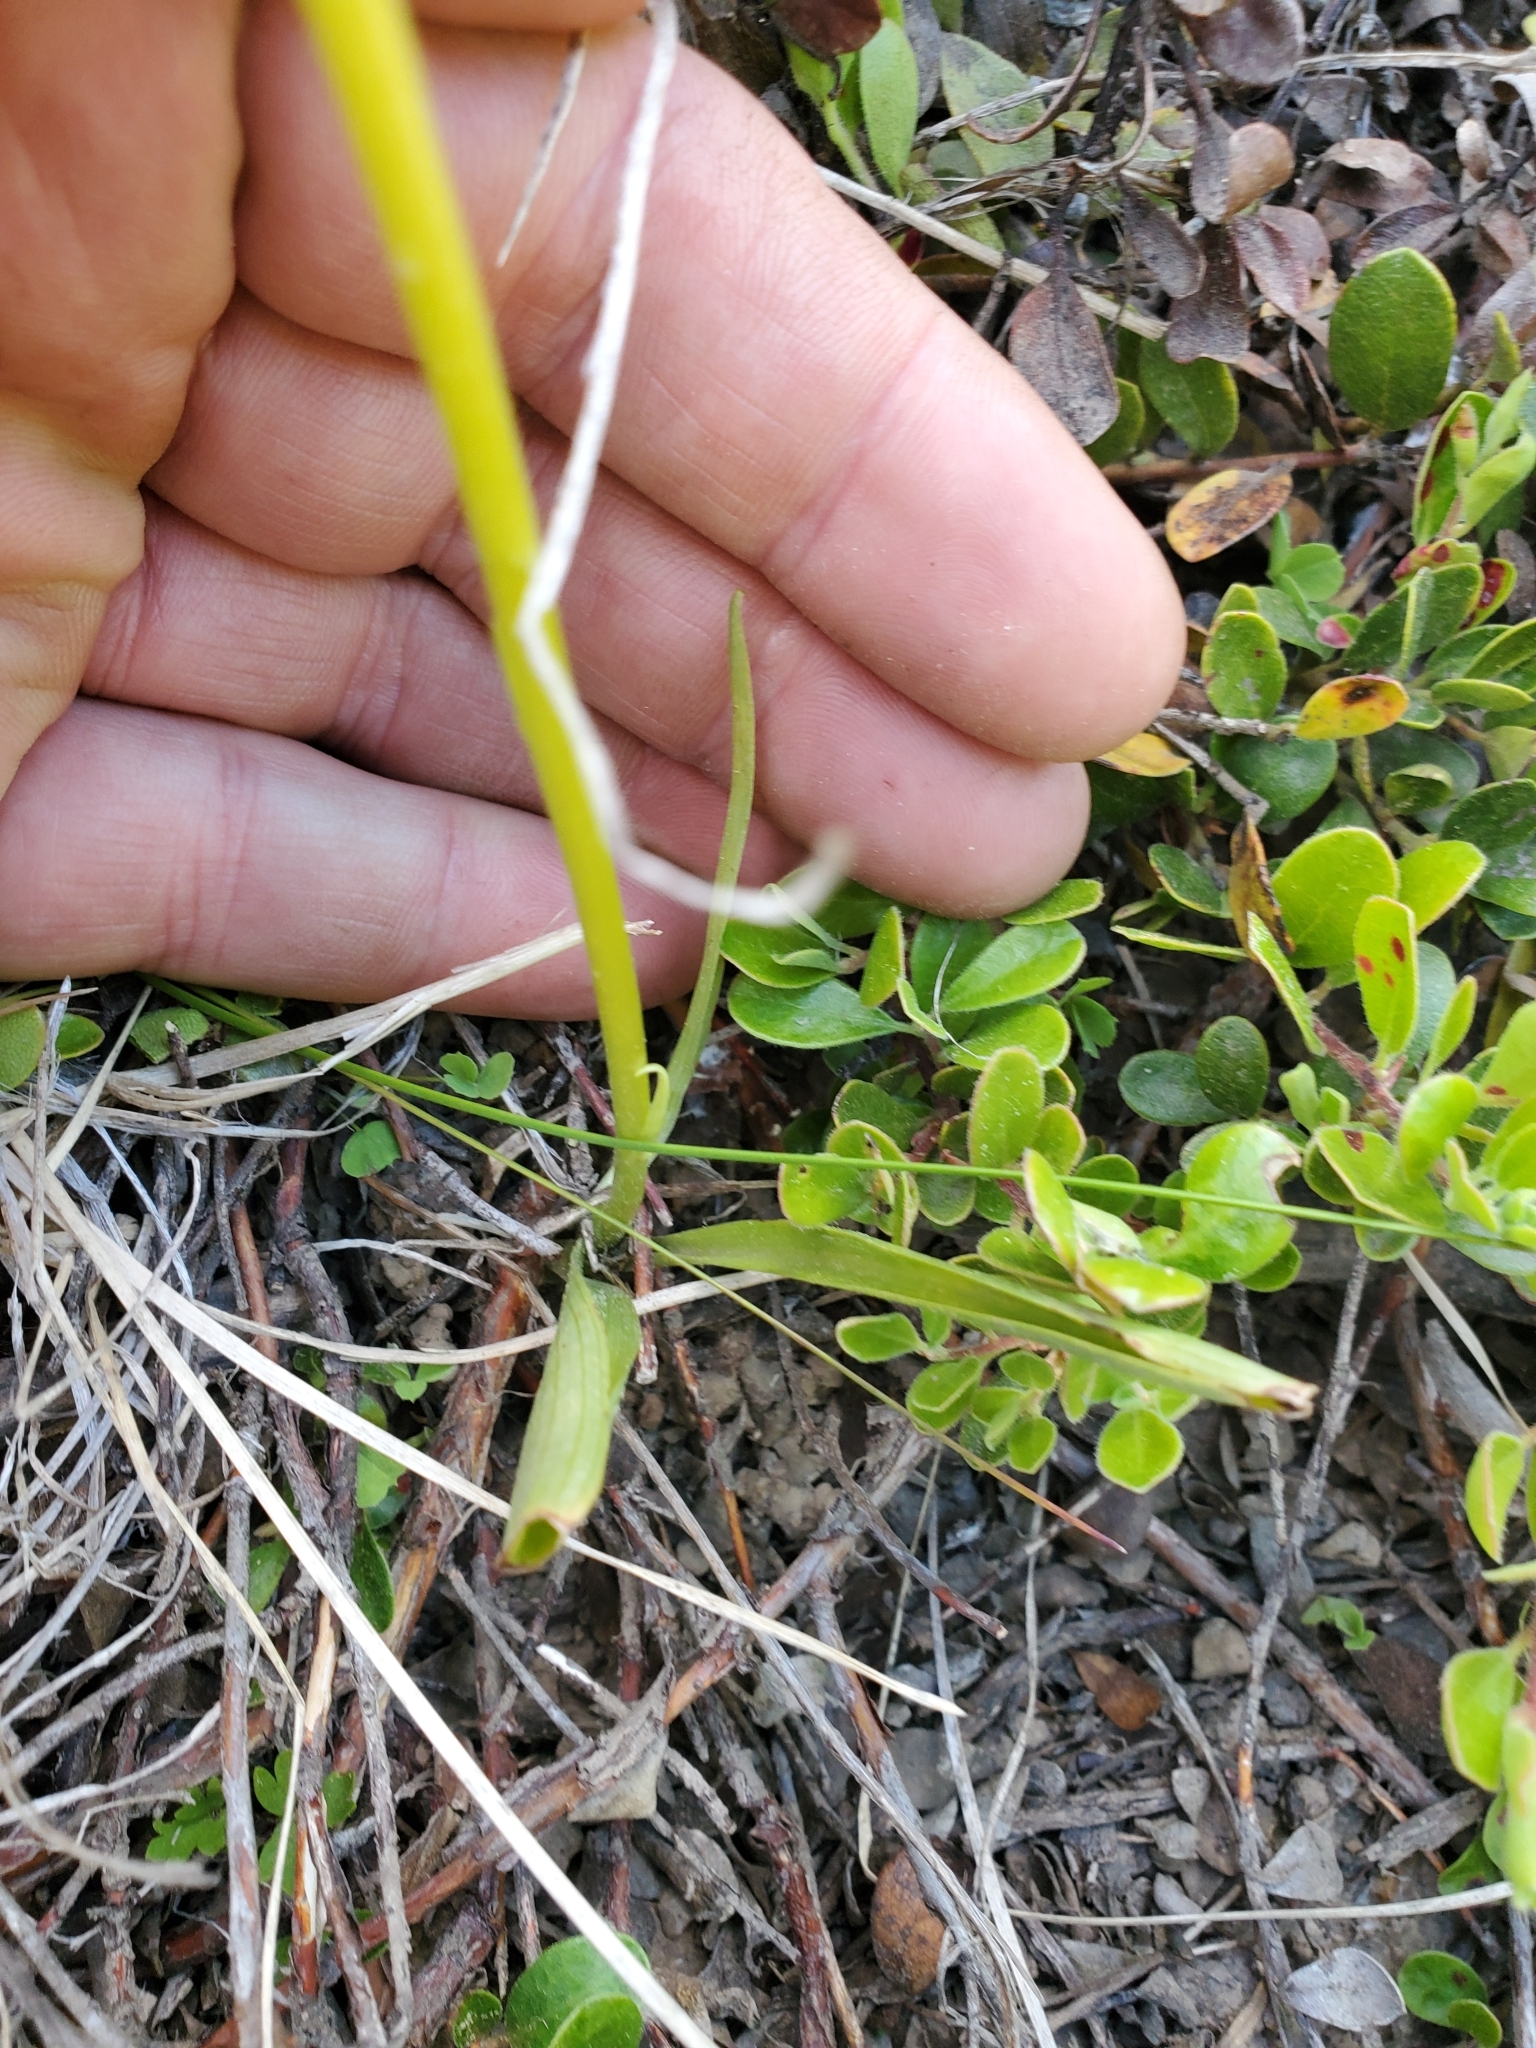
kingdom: Plantae
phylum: Tracheophyta
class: Liliopsida
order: Asparagales
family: Orchidaceae
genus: Platanthera
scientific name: Platanthera unalascensis
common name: Alaska bog orchid
